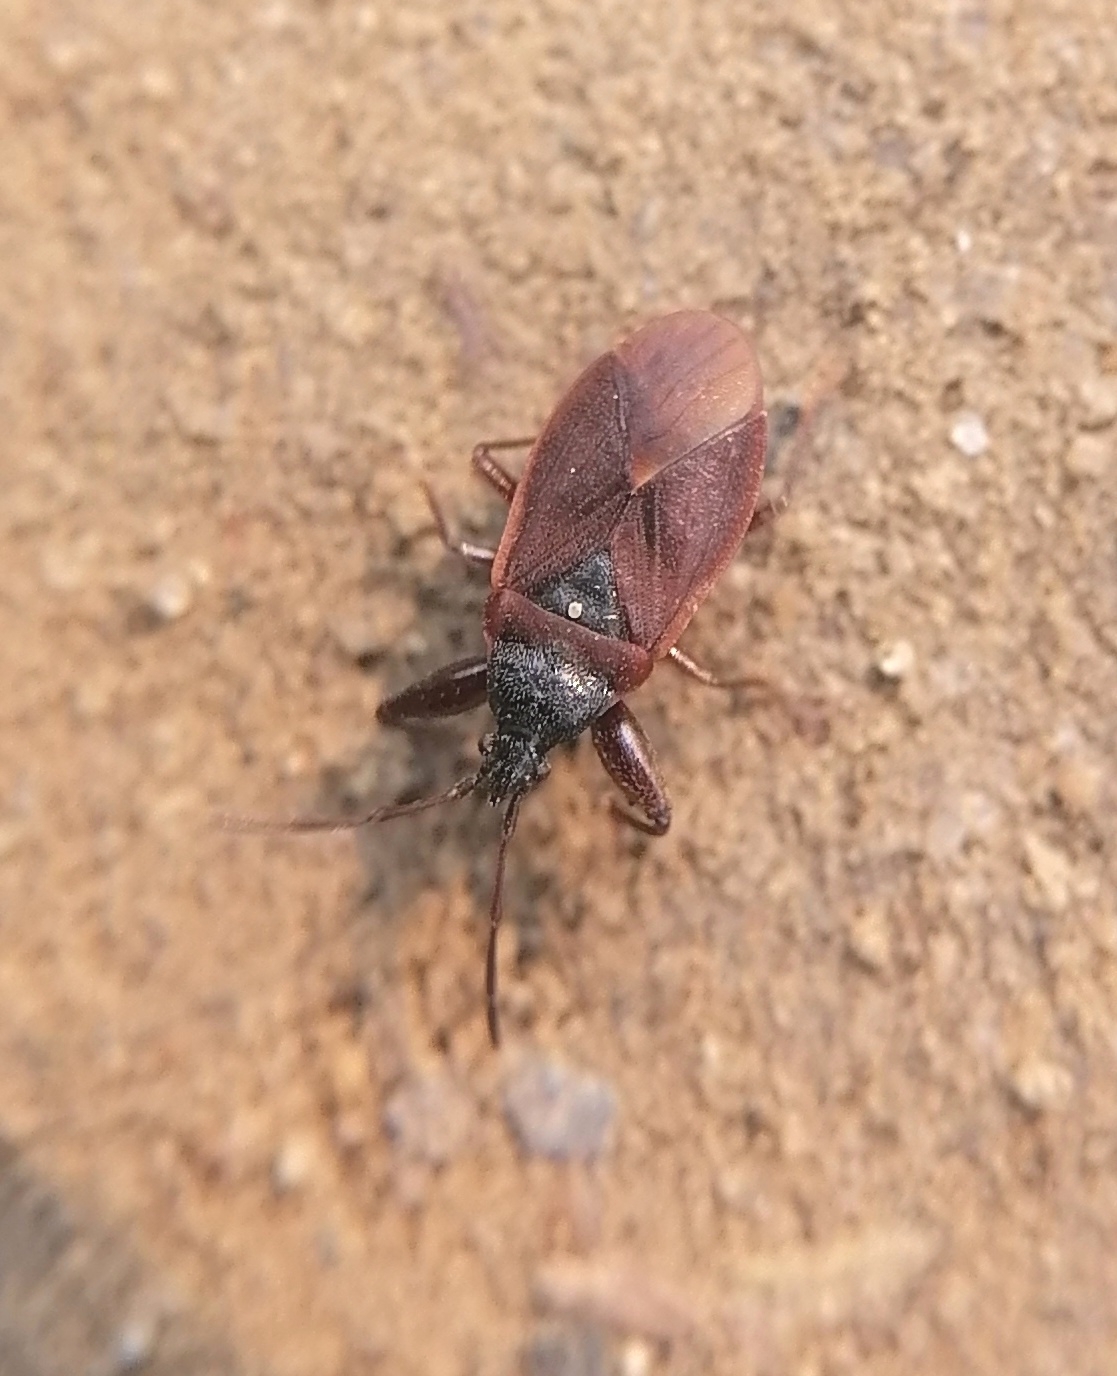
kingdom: Animalia
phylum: Arthropoda
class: Insecta
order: Hemiptera
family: Rhyparochromidae
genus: Gastrodes
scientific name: Gastrodes grossipes
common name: Pine cone bug
